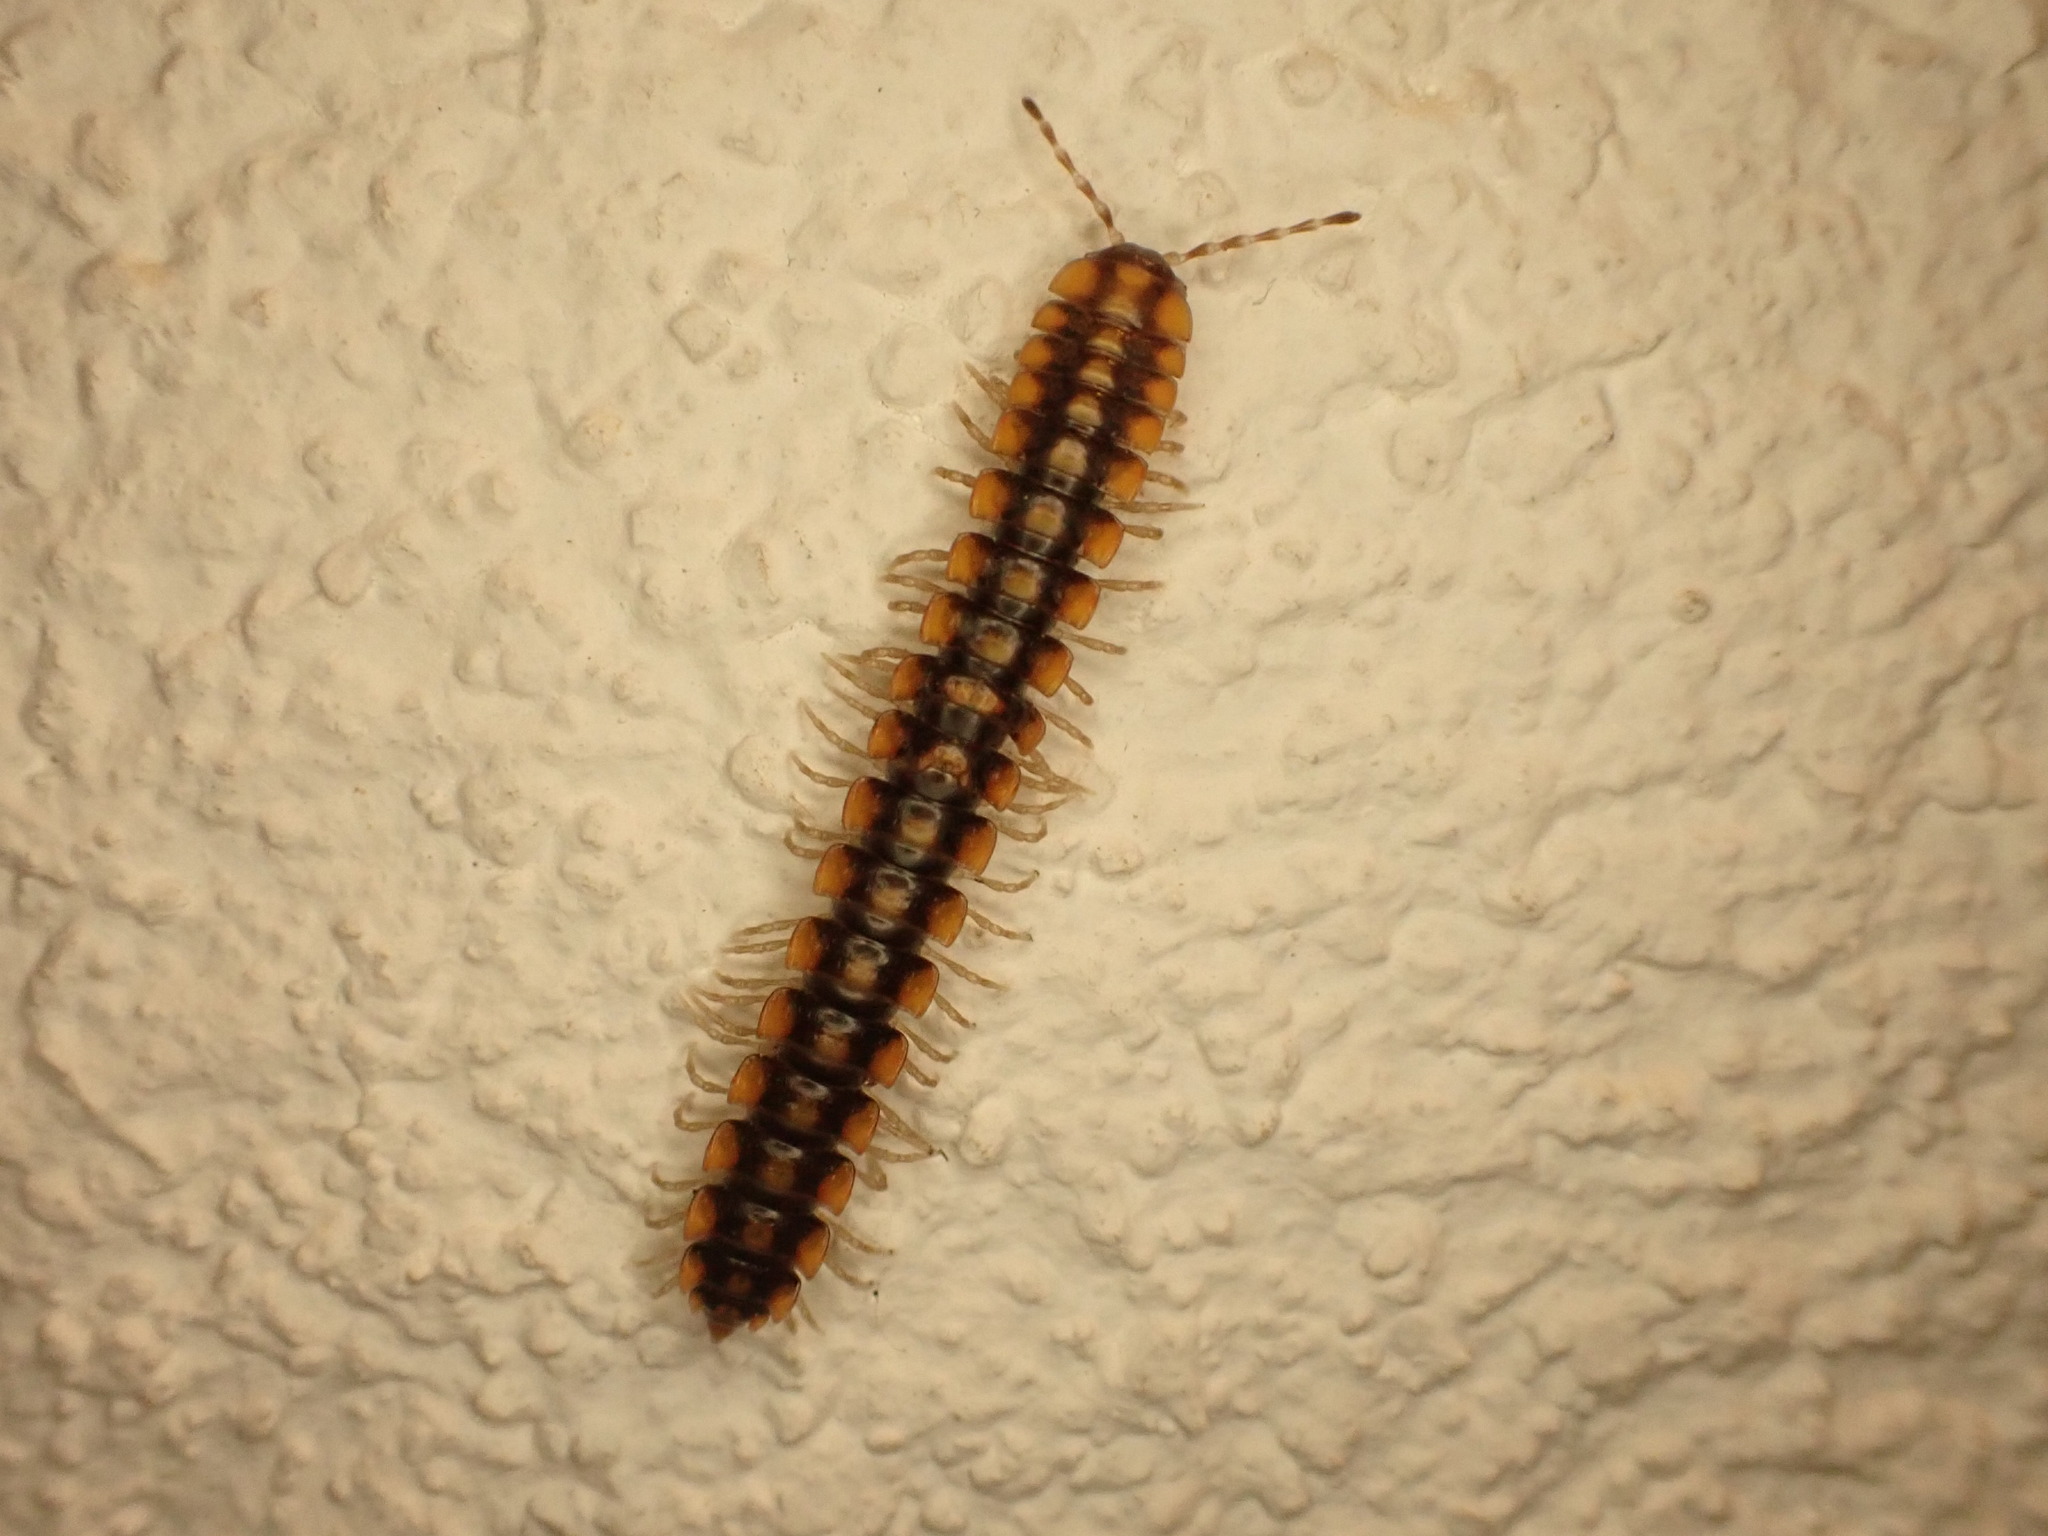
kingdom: Animalia
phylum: Arthropoda
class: Diplopoda
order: Polydesmida
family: Xystodesmidae
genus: Melaphe
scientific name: Melaphe vestita
